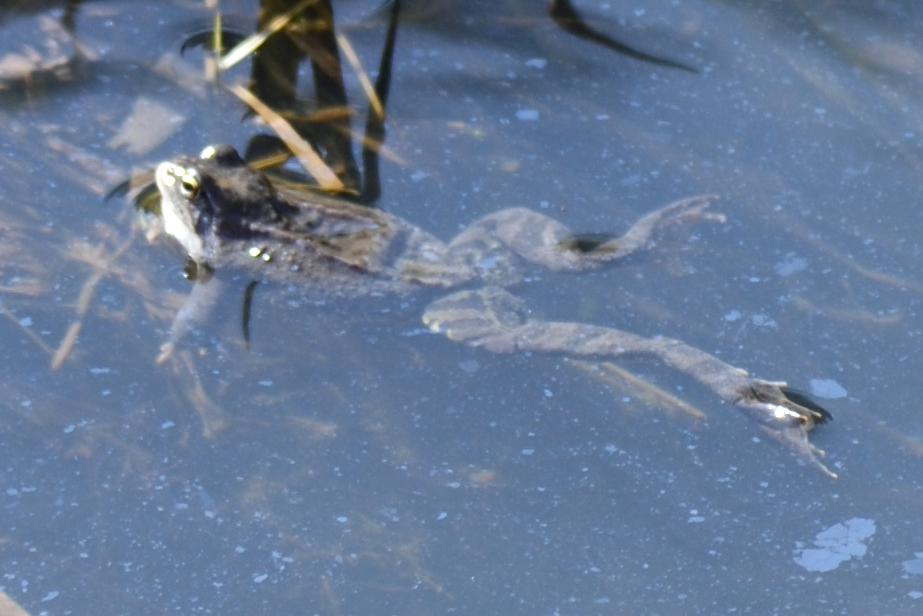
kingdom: Animalia
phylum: Chordata
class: Amphibia
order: Anura
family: Ranidae
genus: Rana
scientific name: Rana temporaria
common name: Common frog
